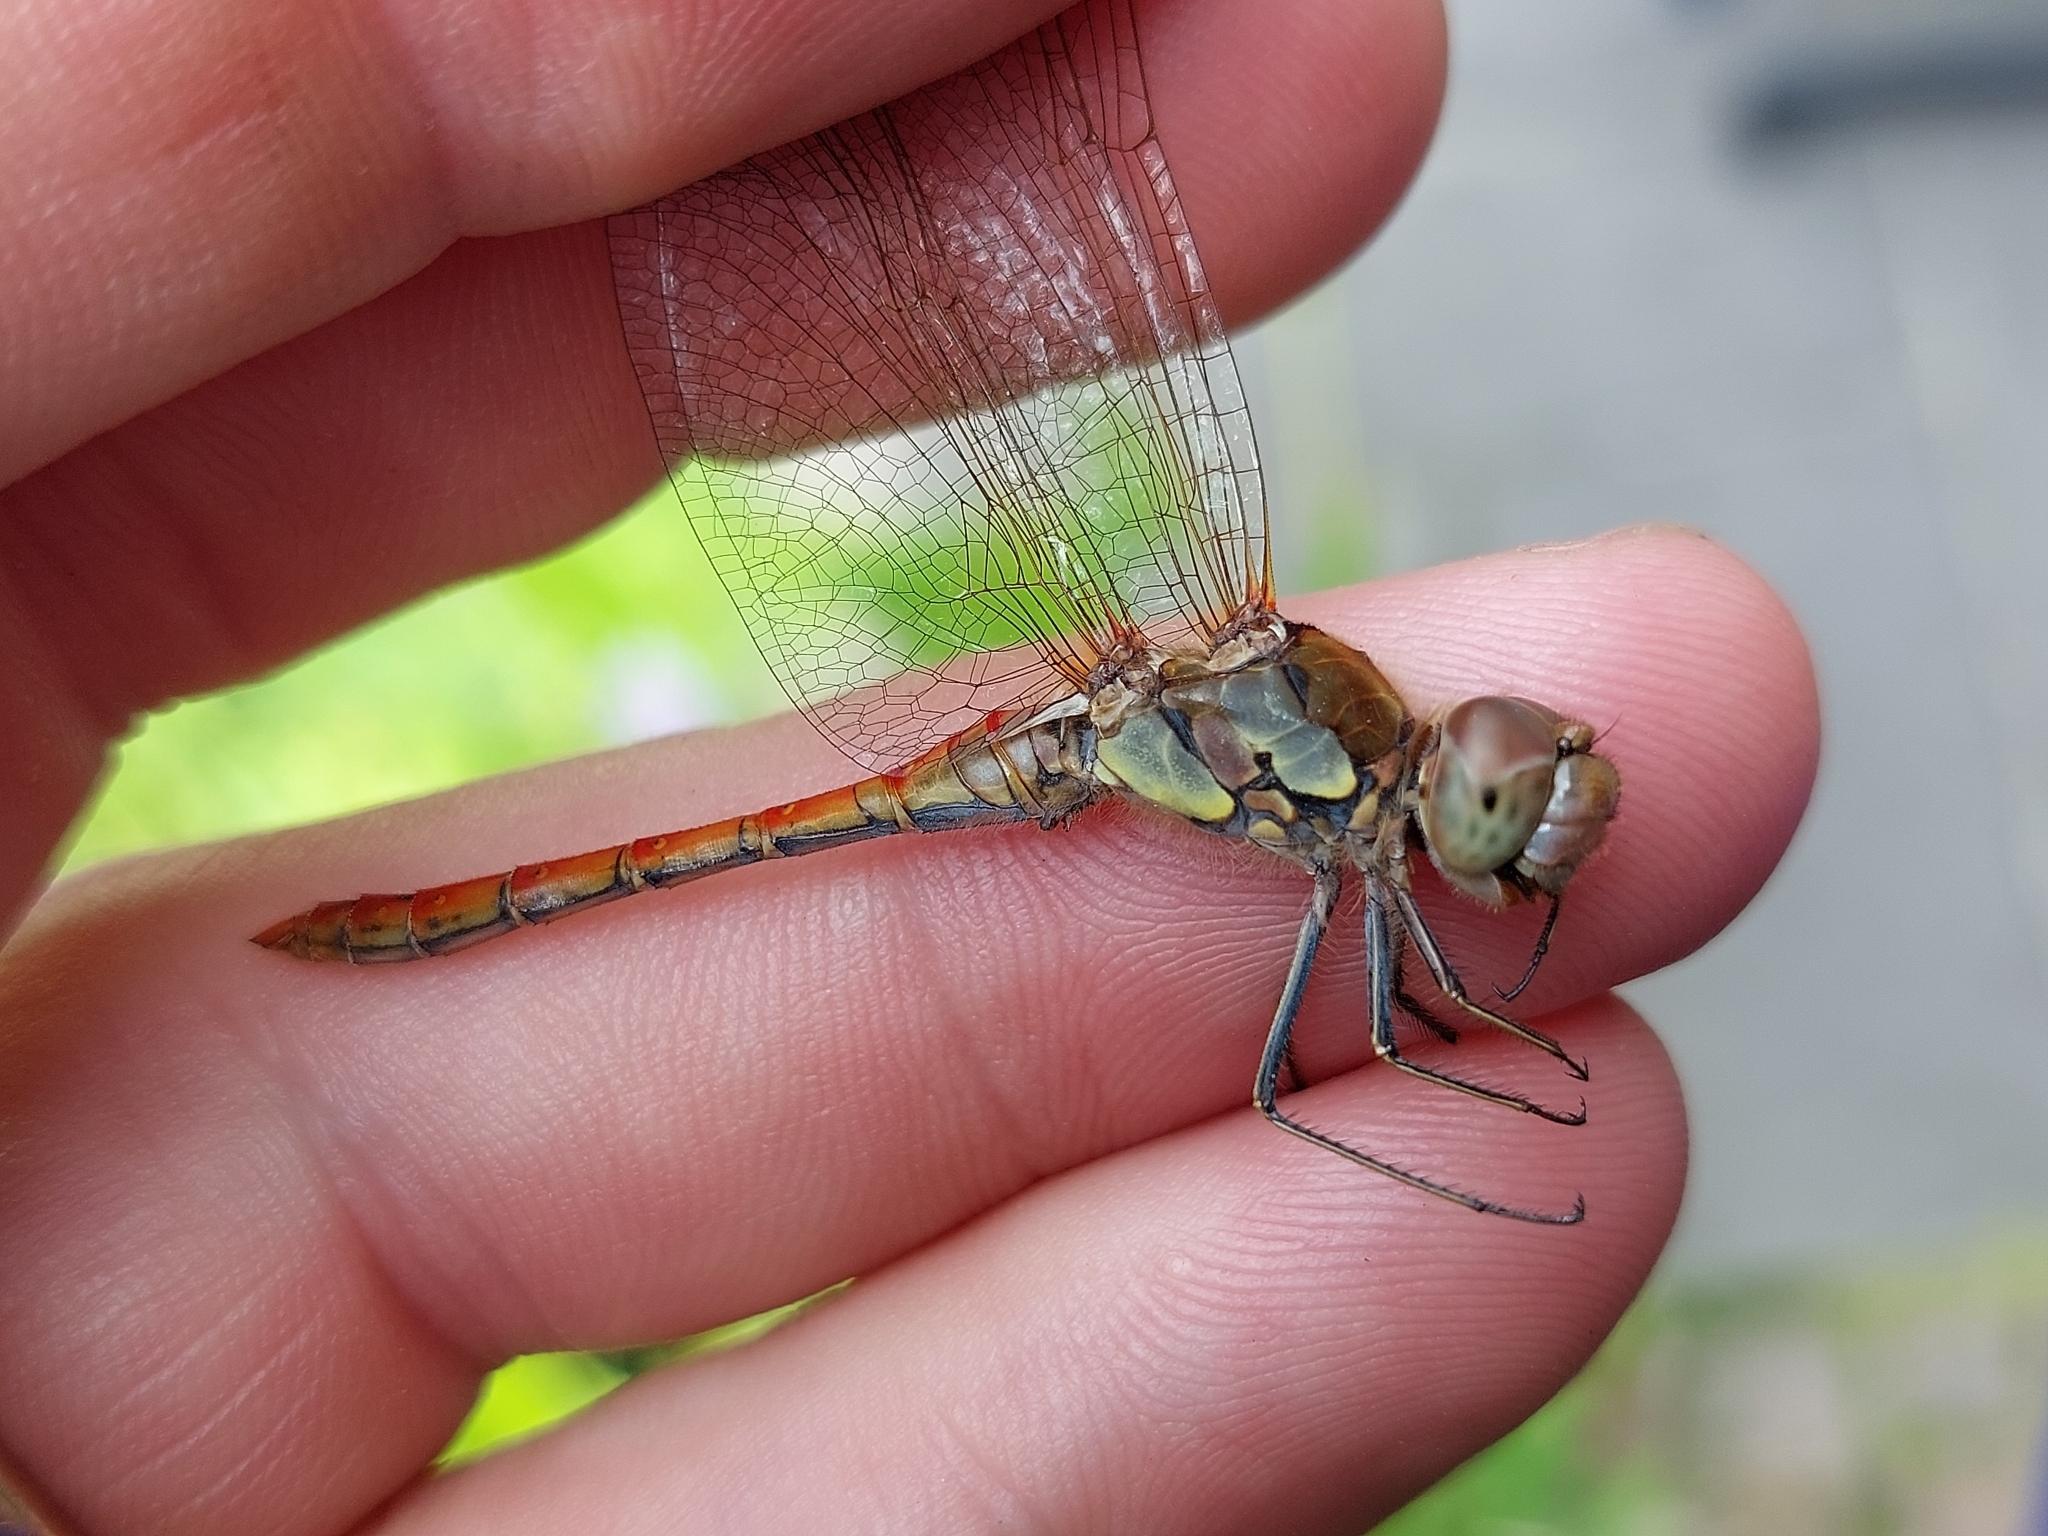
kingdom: Animalia
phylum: Arthropoda
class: Insecta
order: Odonata
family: Libellulidae
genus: Sympetrum
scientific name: Sympetrum striolatum
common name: Common darter
